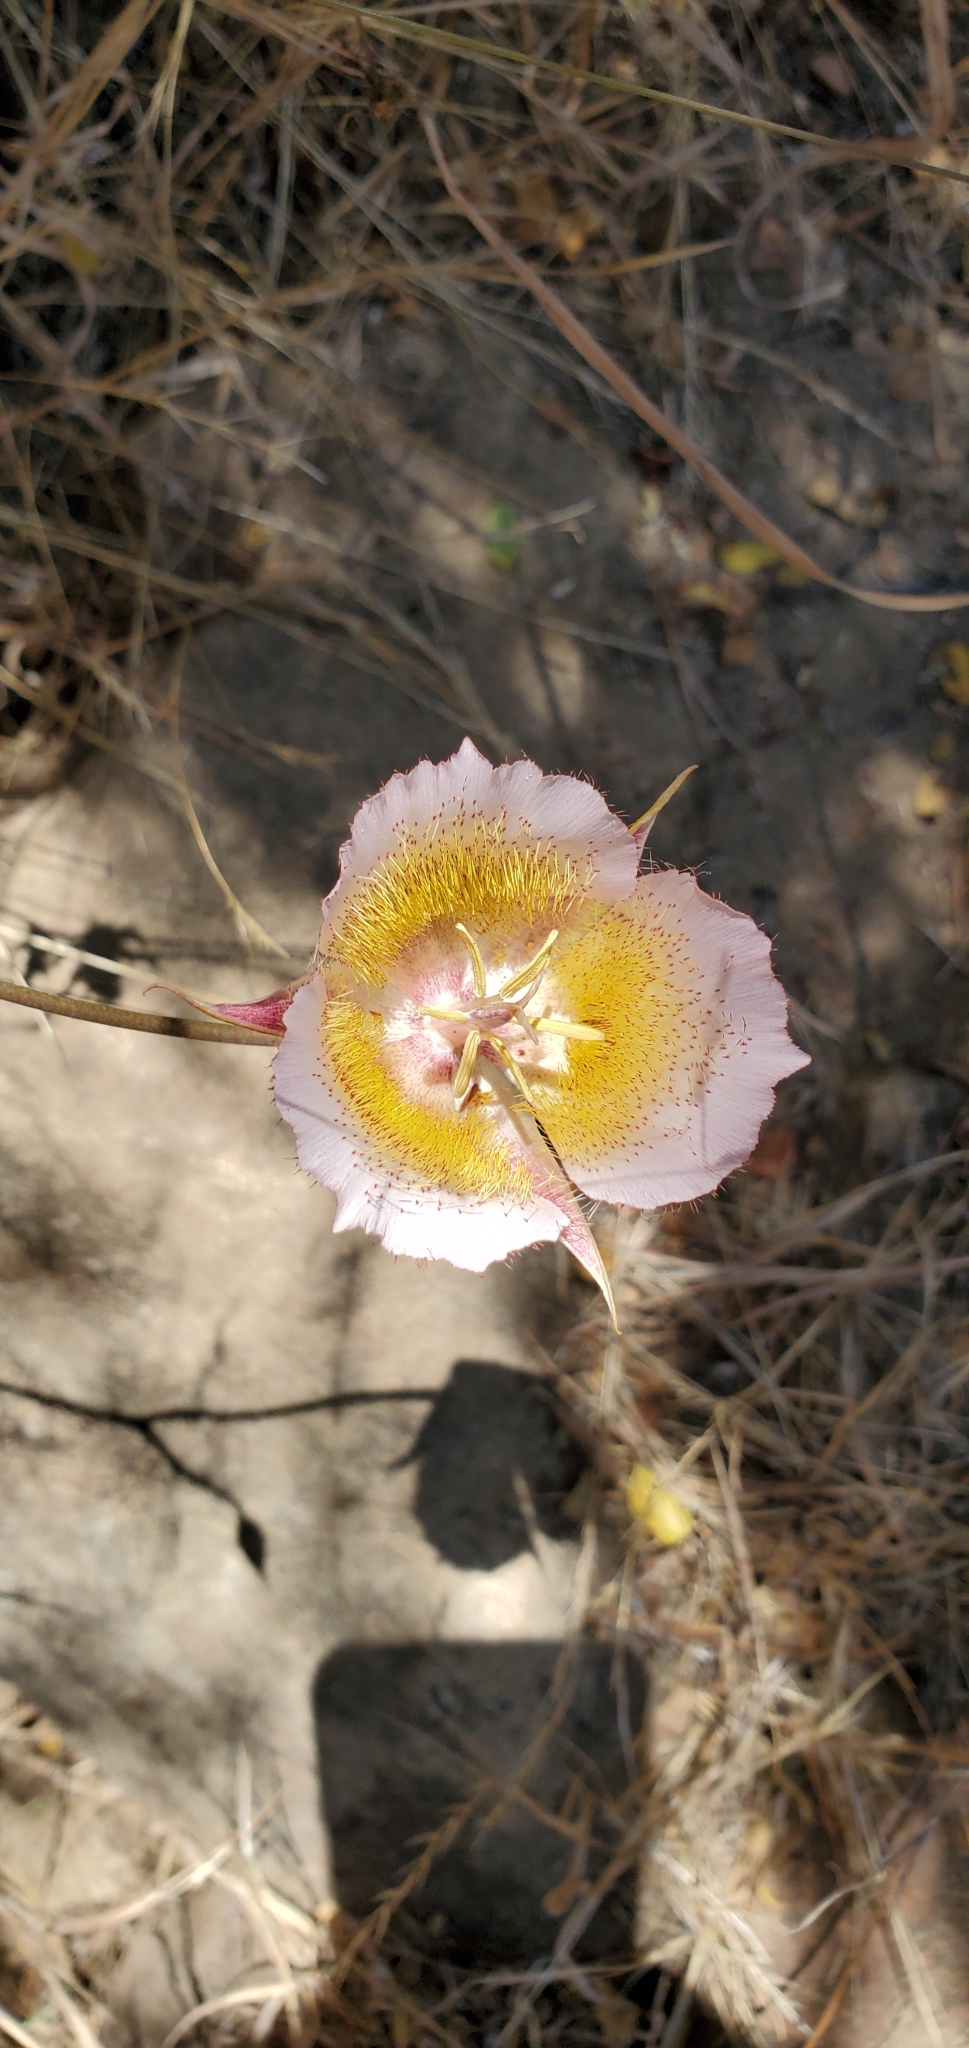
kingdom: Plantae
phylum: Tracheophyta
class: Liliopsida
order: Liliales
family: Liliaceae
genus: Calochortus
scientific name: Calochortus plummerae
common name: Plummer's mariposa-lily
